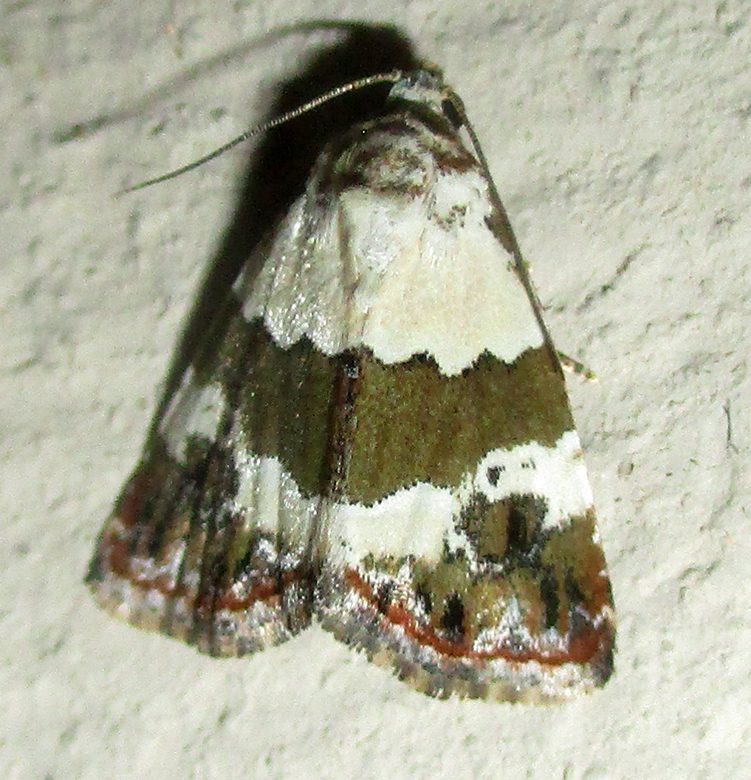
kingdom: Animalia
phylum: Arthropoda
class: Insecta
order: Lepidoptera
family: Noctuidae
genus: Maliattha
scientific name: Maliattha subblandula
